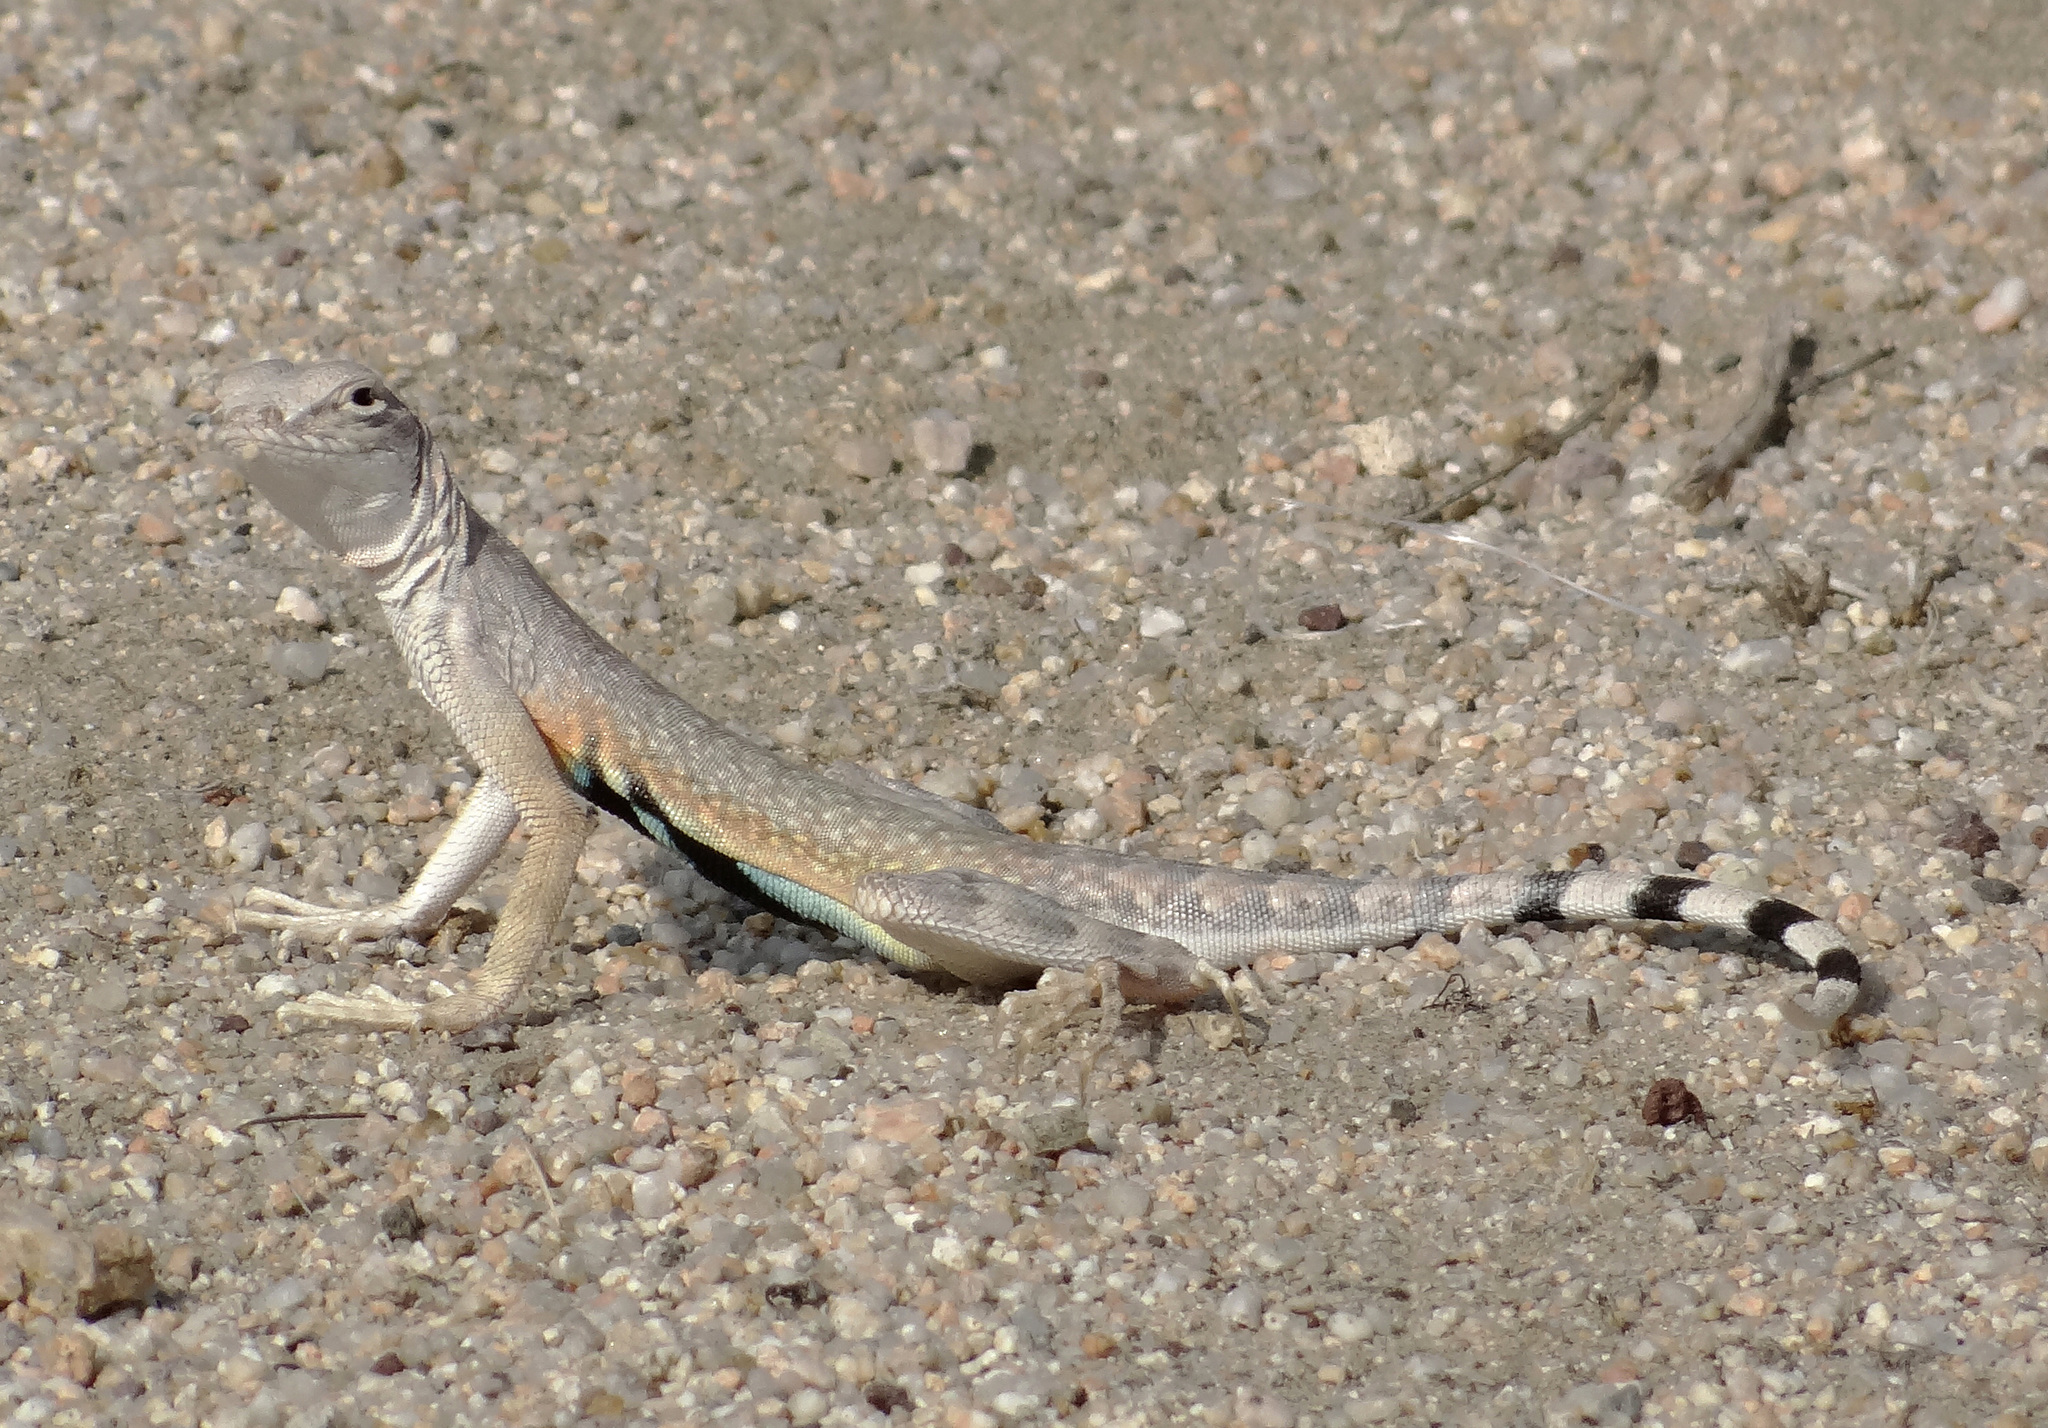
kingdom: Animalia
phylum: Chordata
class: Squamata
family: Phrynosomatidae
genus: Callisaurus
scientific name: Callisaurus draconoides
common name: Zebra-tailed lizard
